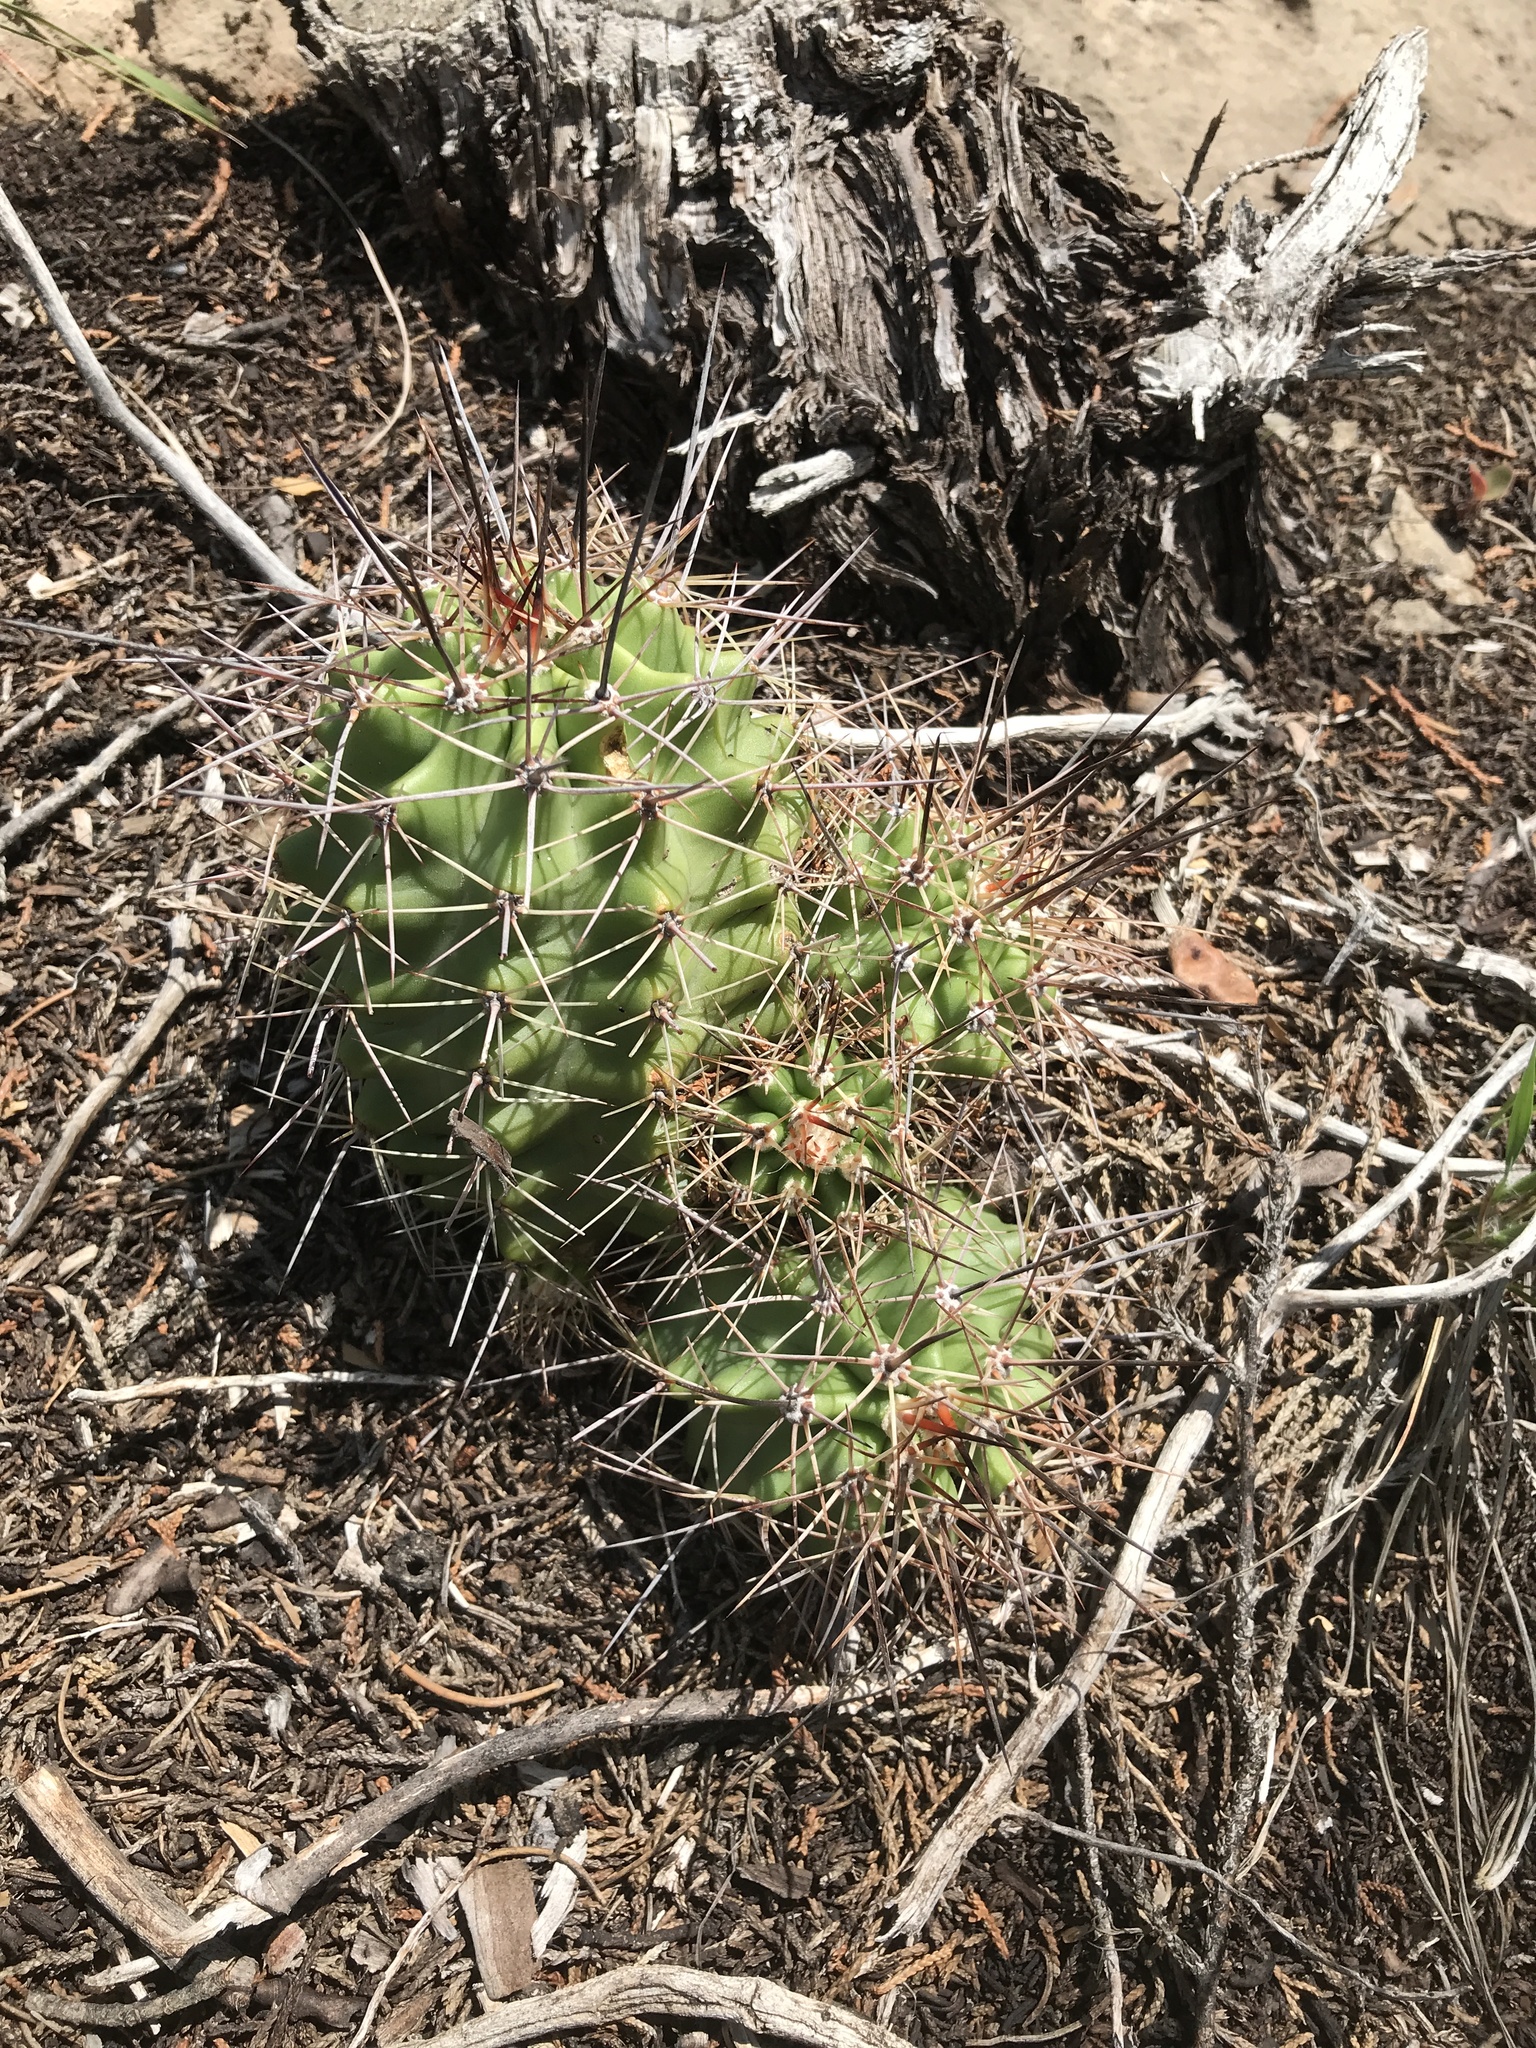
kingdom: Plantae
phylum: Tracheophyta
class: Magnoliopsida
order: Caryophyllales
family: Cactaceae
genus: Echinocereus
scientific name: Echinocereus coccineus
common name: Scarlet hedgehog cactus
